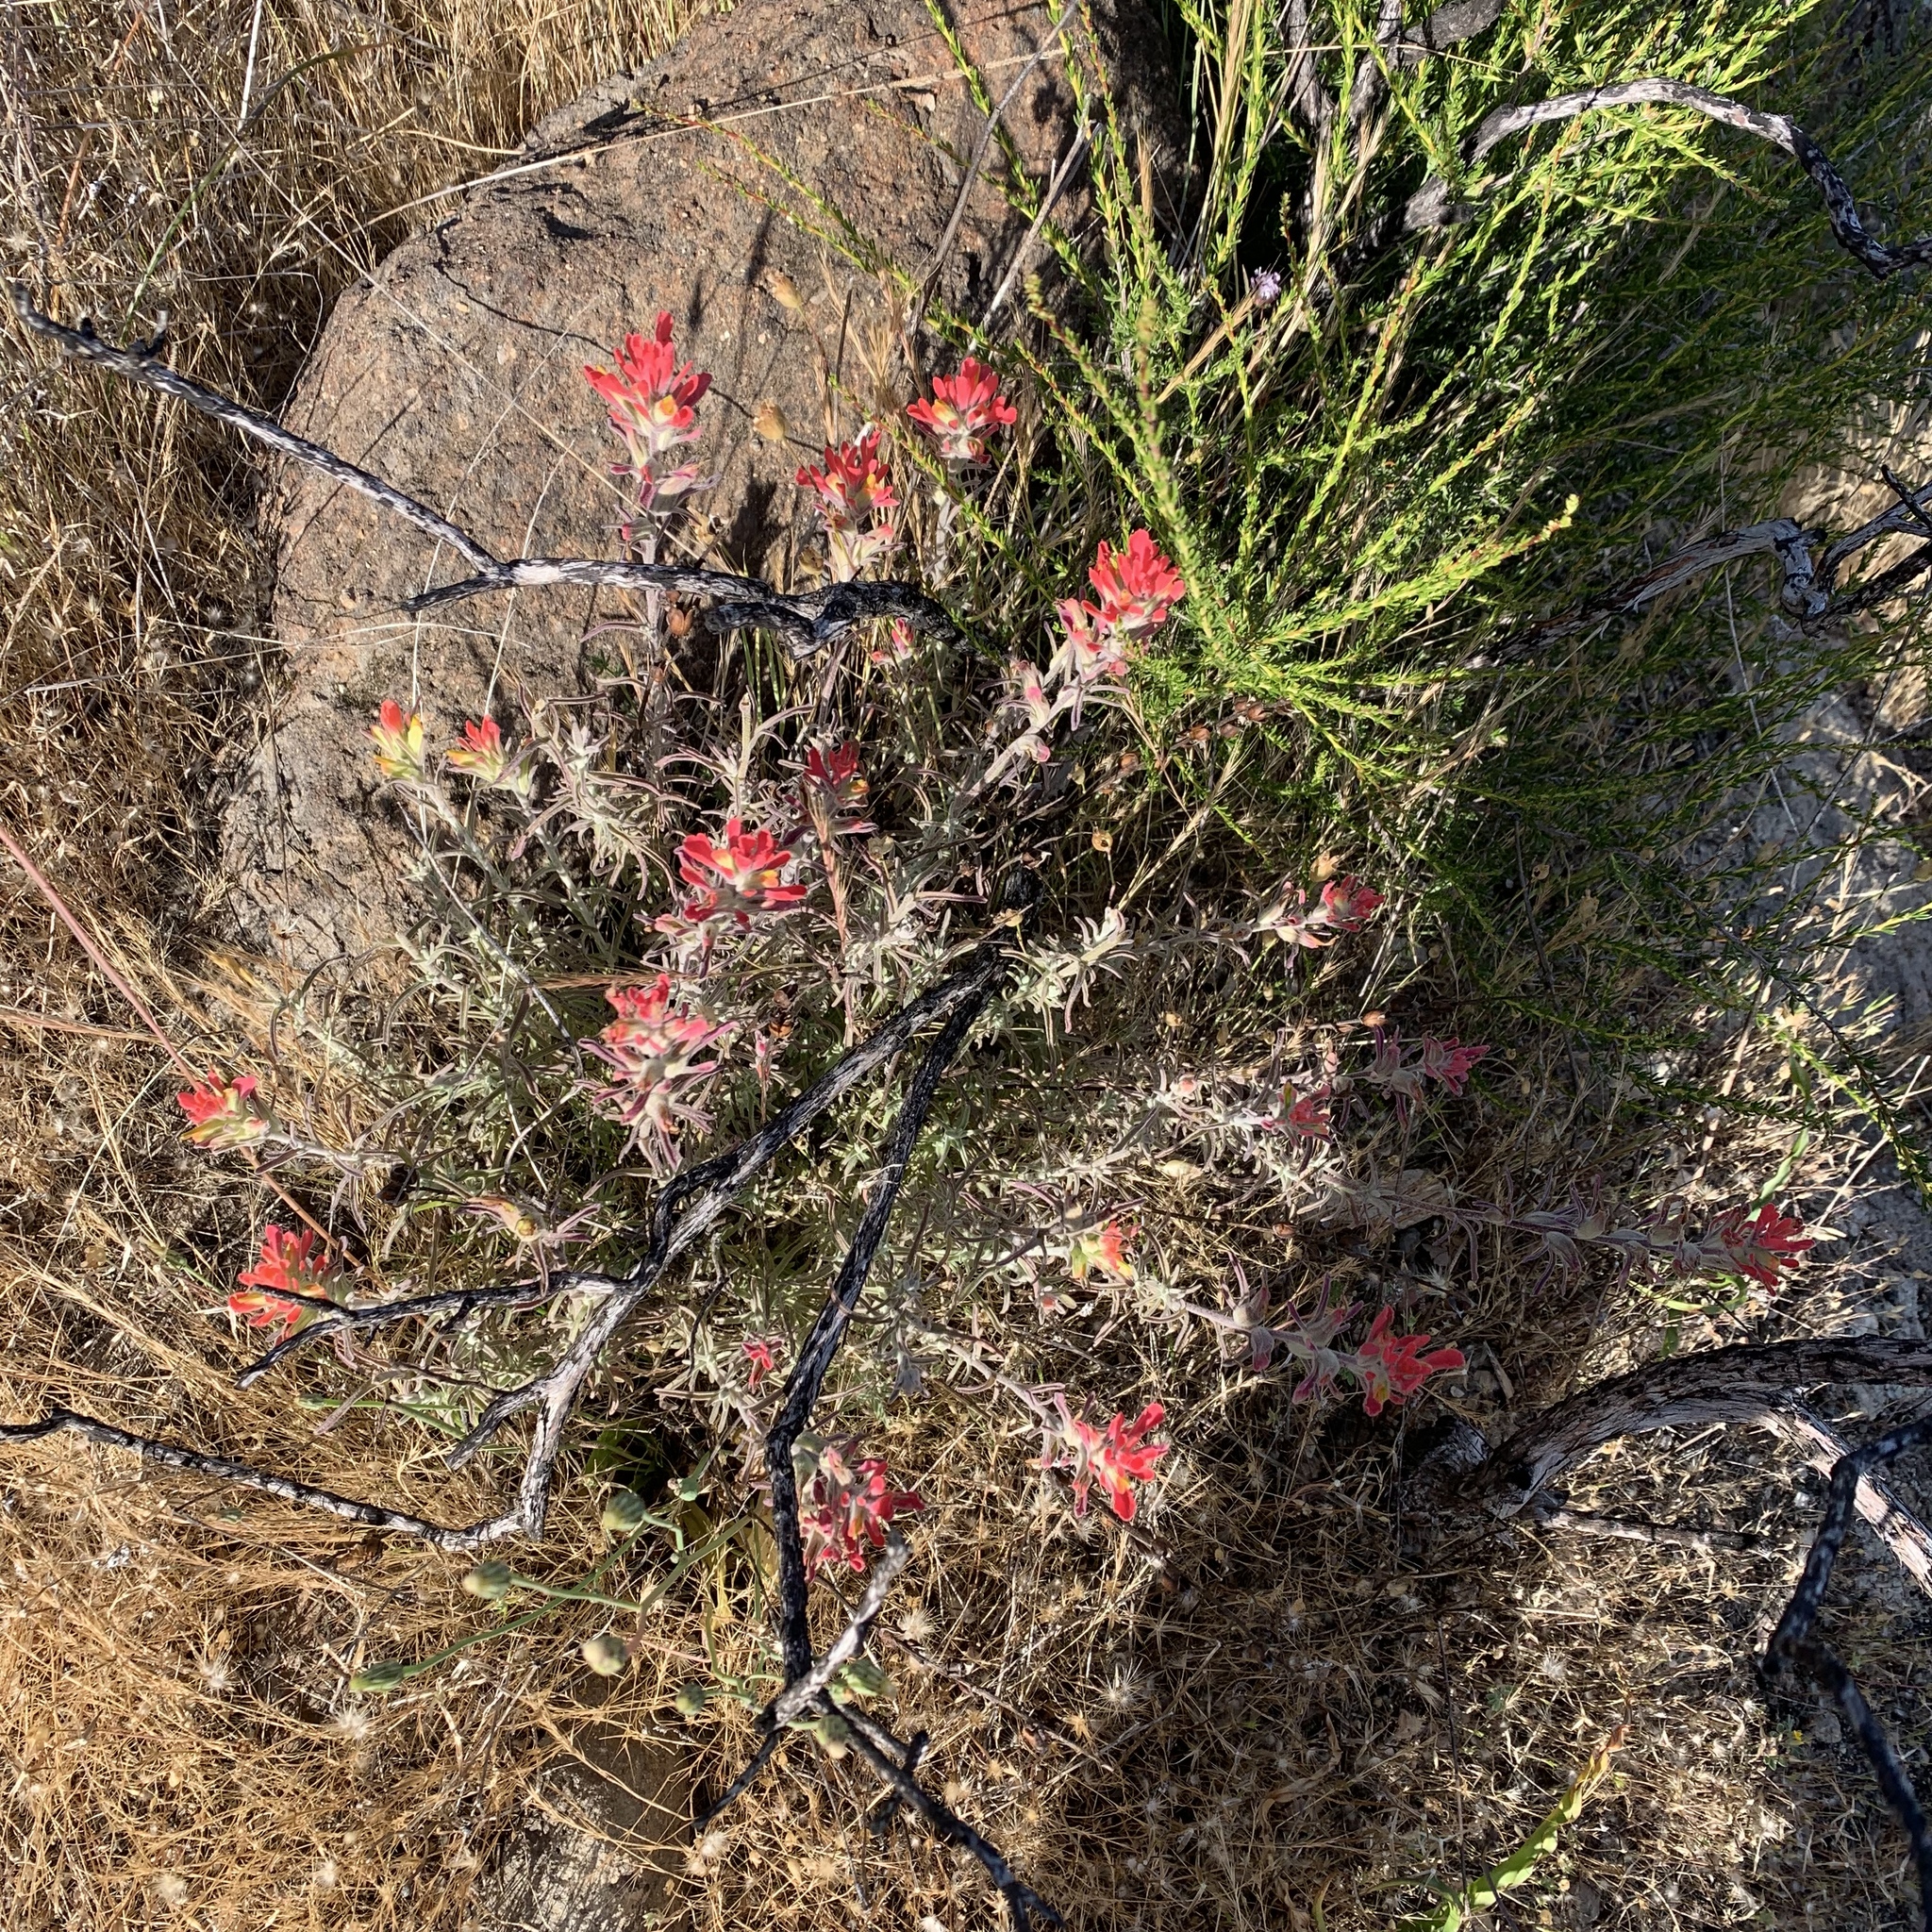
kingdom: Plantae
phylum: Tracheophyta
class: Magnoliopsida
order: Lamiales
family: Orobanchaceae
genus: Castilleja
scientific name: Castilleja foliolosa
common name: Woolly indian paintbrush
